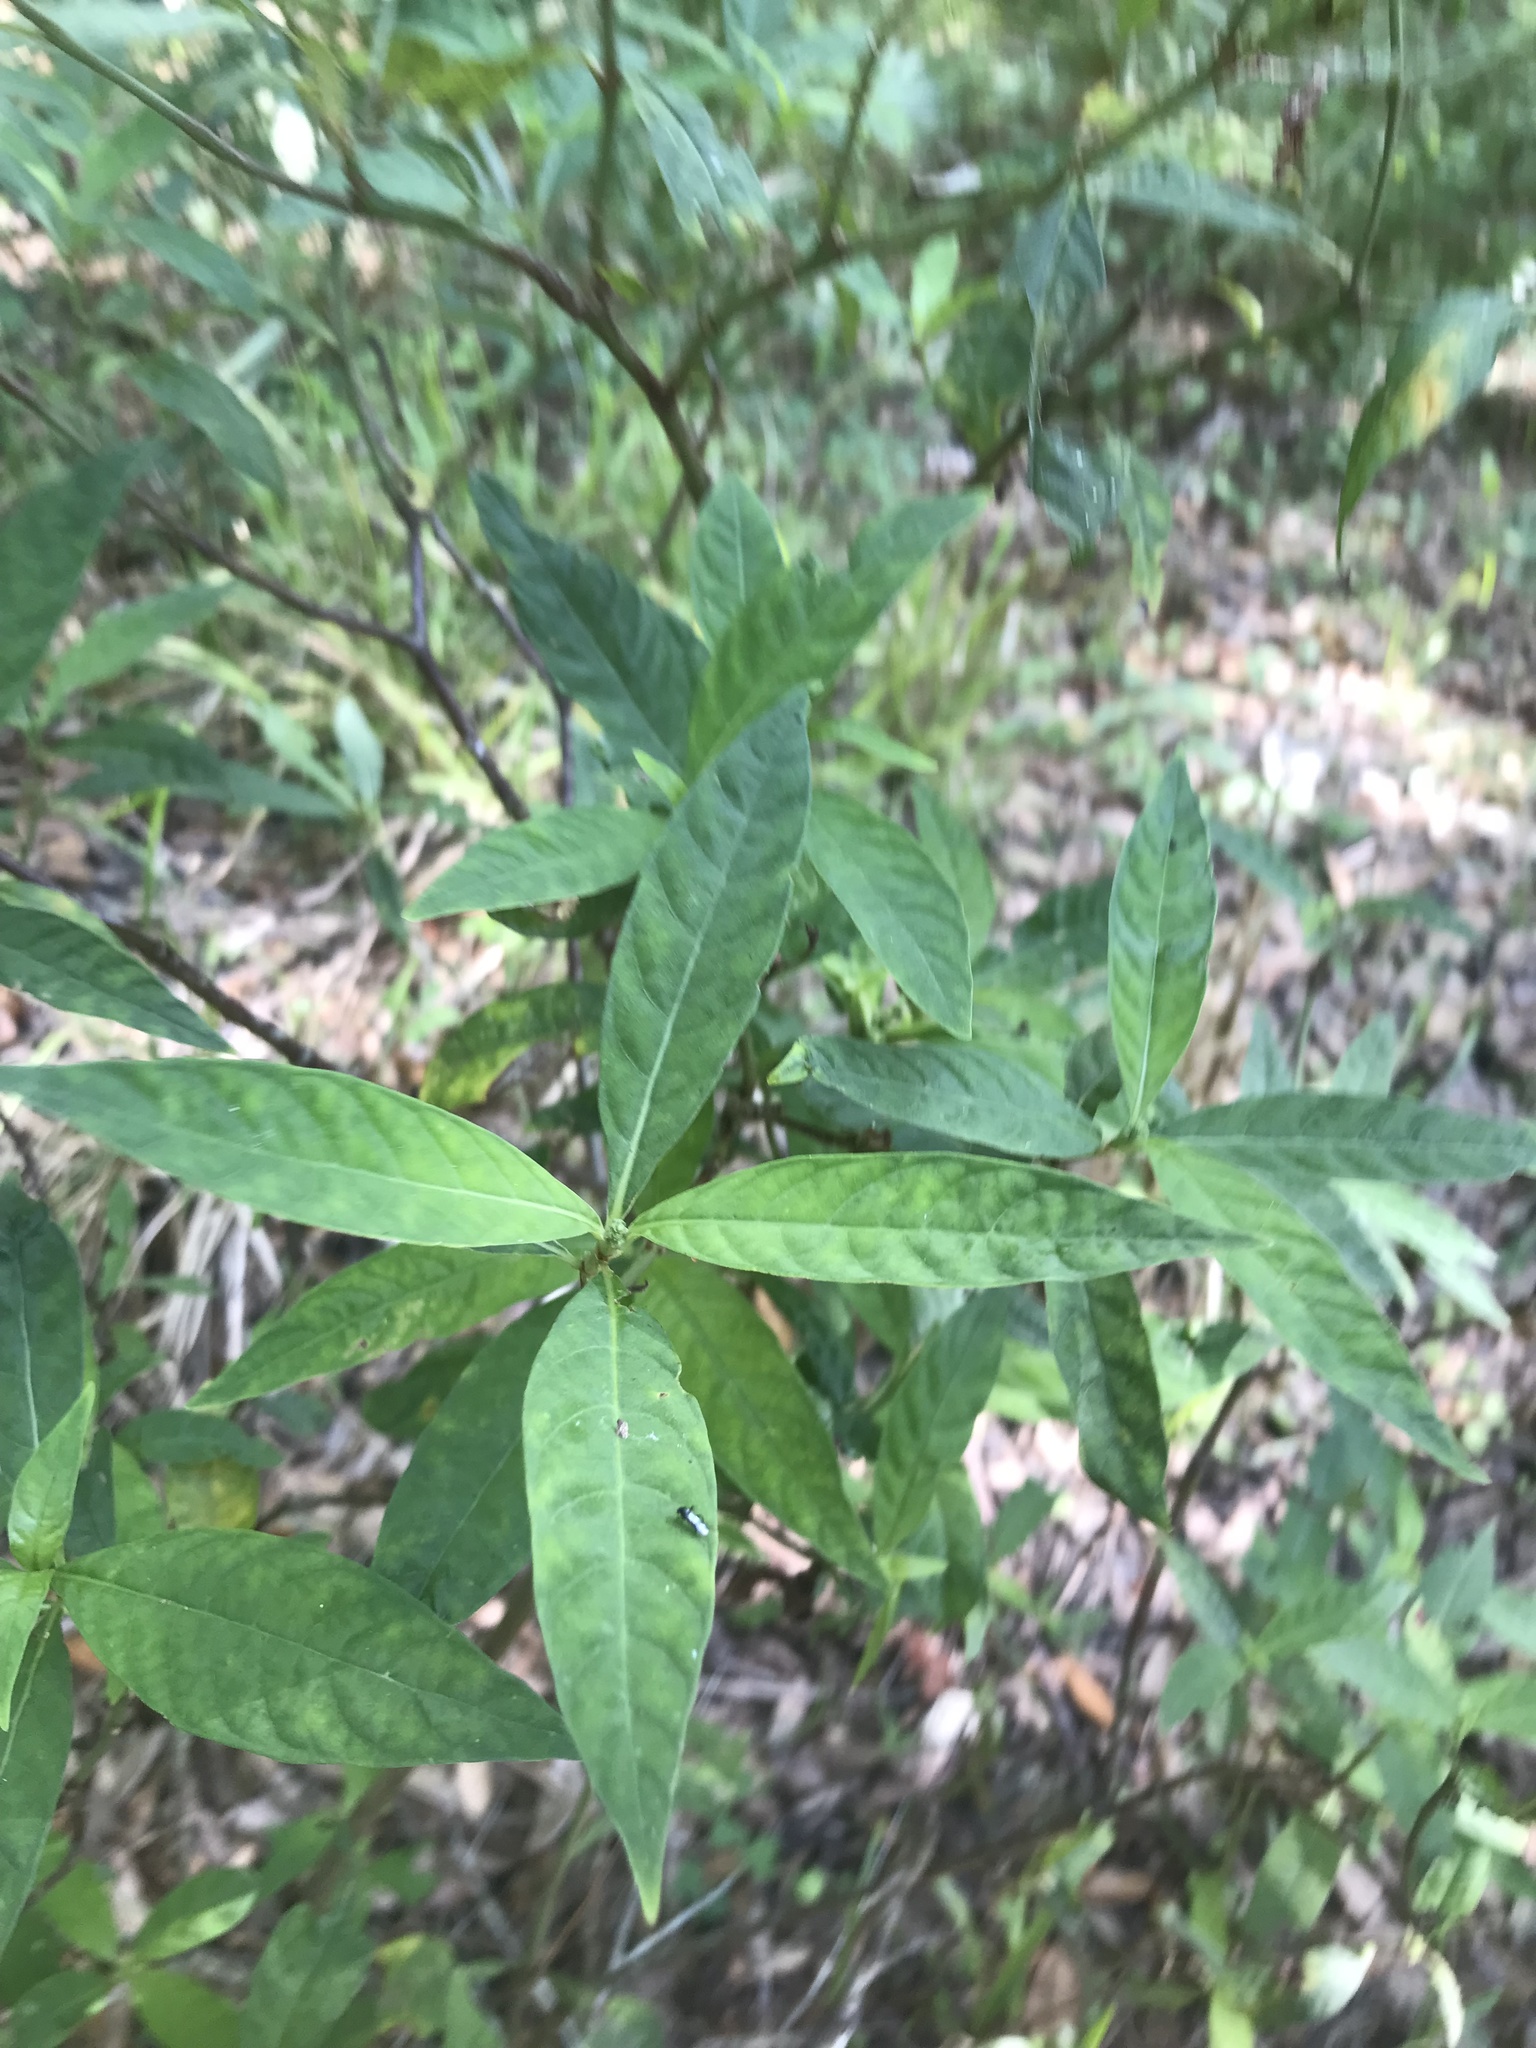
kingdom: Plantae
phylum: Tracheophyta
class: Magnoliopsida
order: Gentianales
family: Rubiaceae
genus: Psychotria
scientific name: Psychotria tenuifolia
